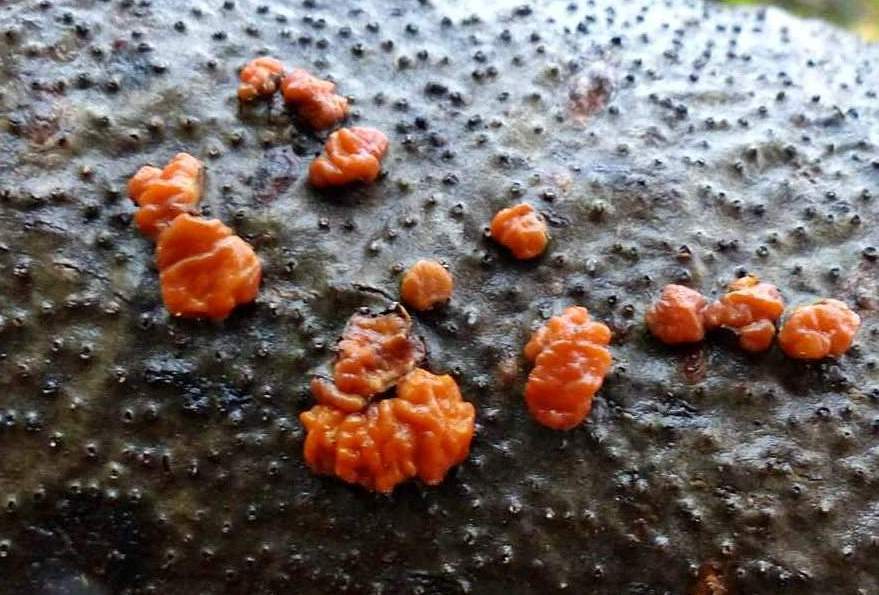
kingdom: Fungi
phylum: Basidiomycota
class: Agaricomycetes
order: Russulales
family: Peniophoraceae
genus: Peniophora
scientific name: Peniophora rufa
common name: Red tree brain fungus
